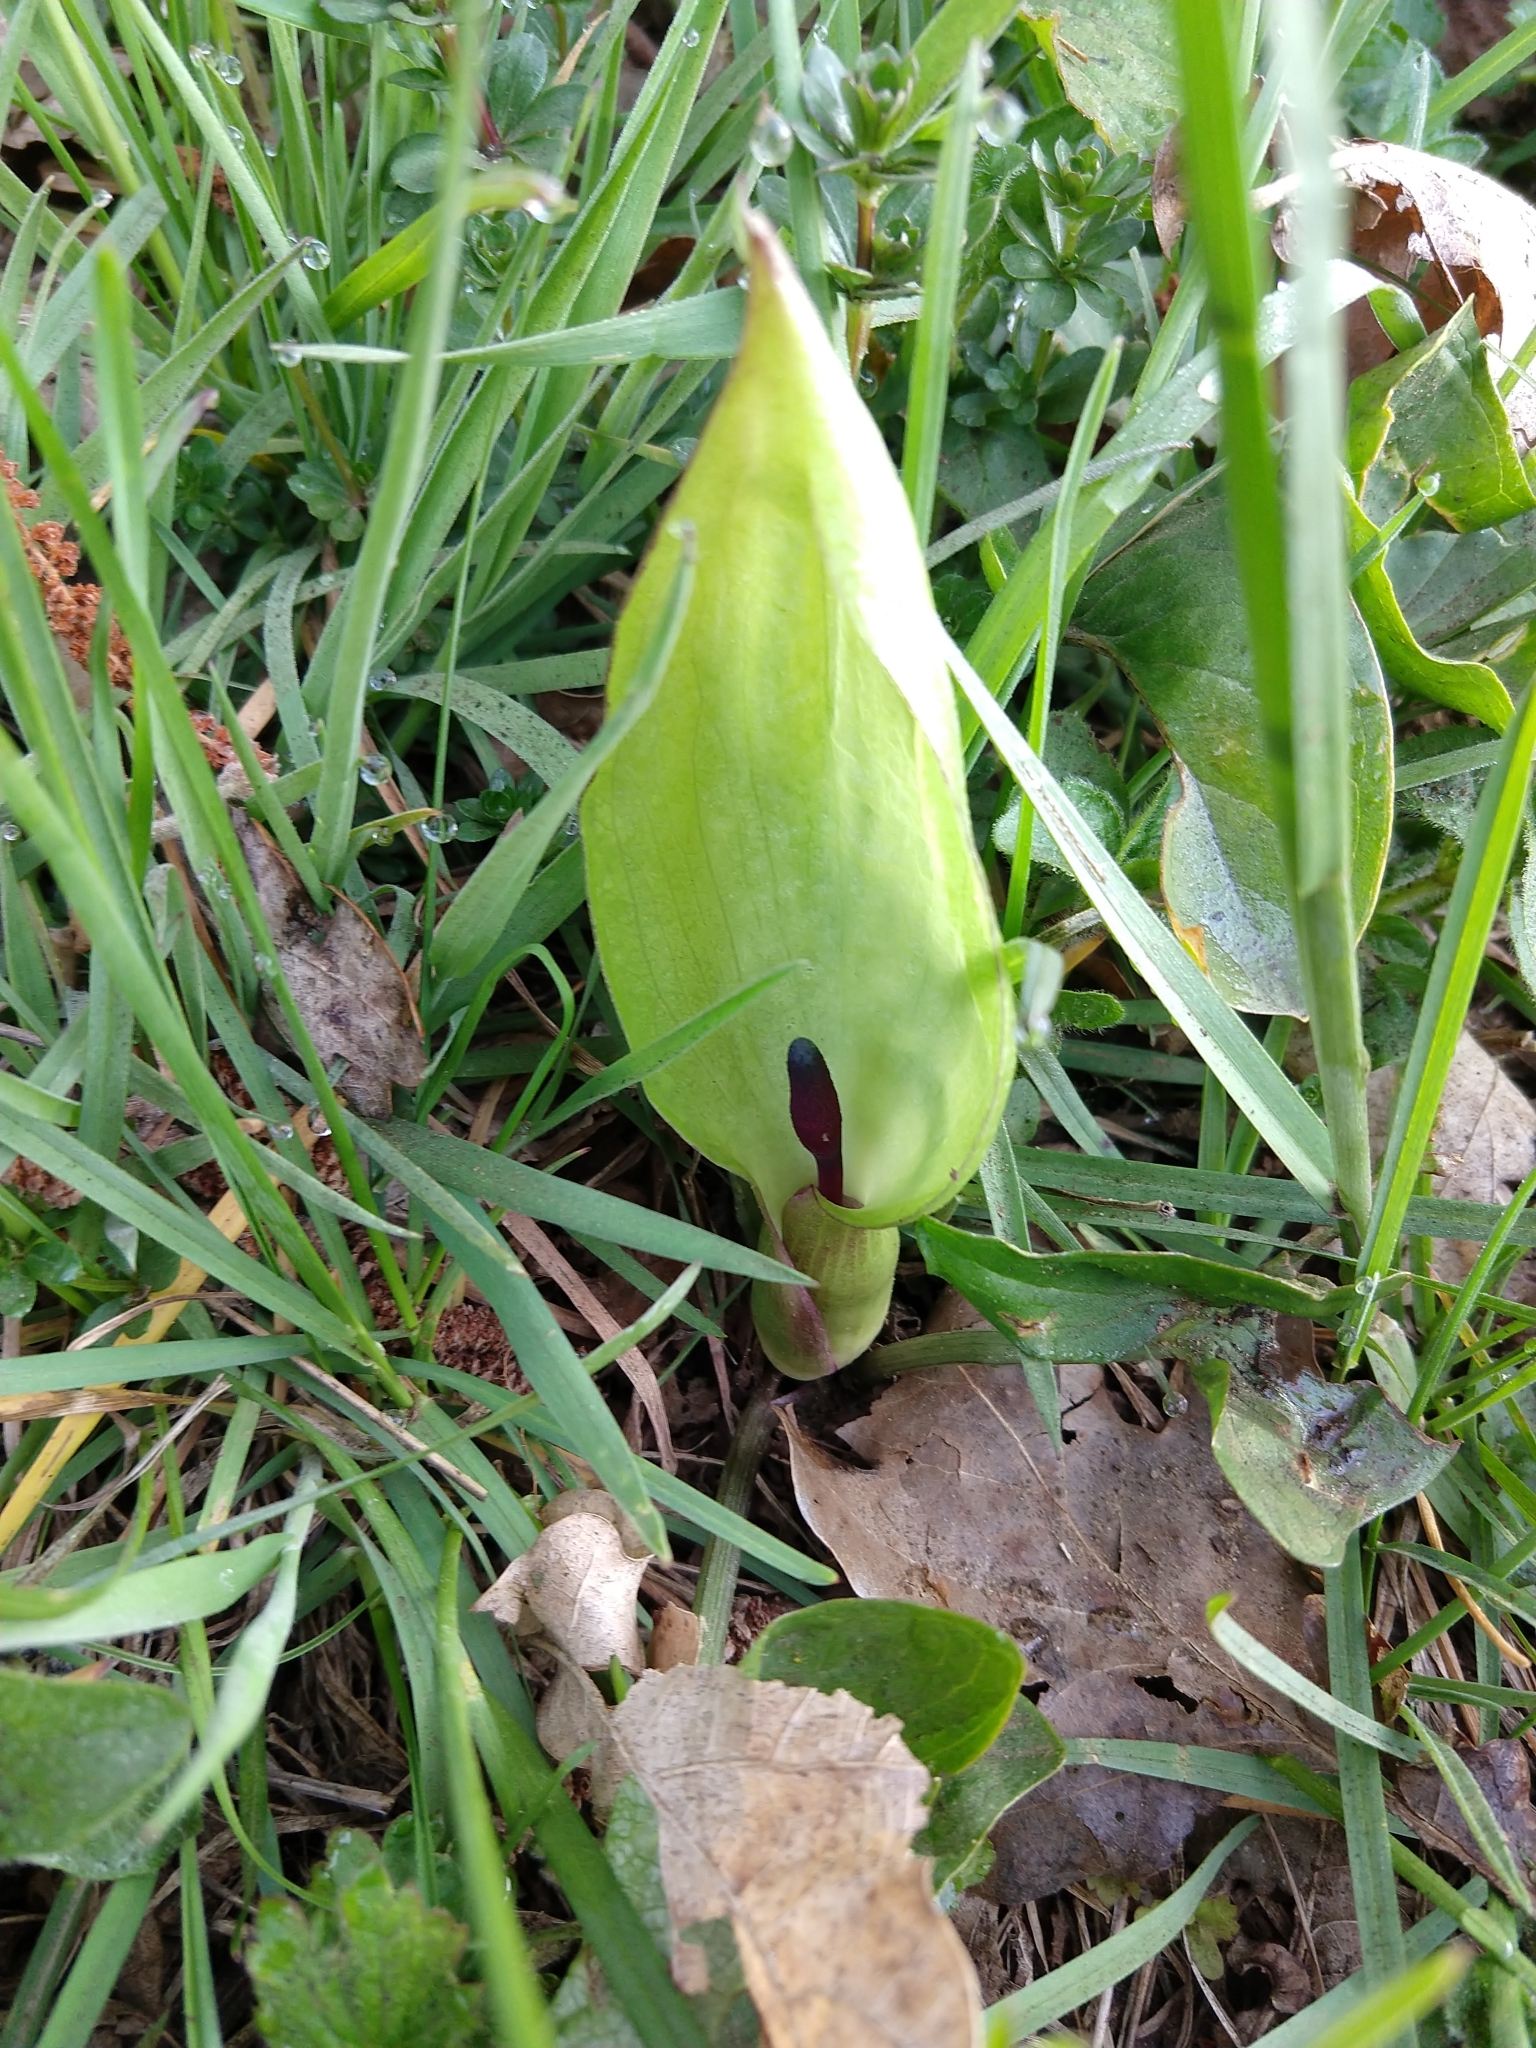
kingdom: Plantae
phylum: Tracheophyta
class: Liliopsida
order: Alismatales
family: Araceae
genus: Arum
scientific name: Arum maculatum
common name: Lords-and-ladies
